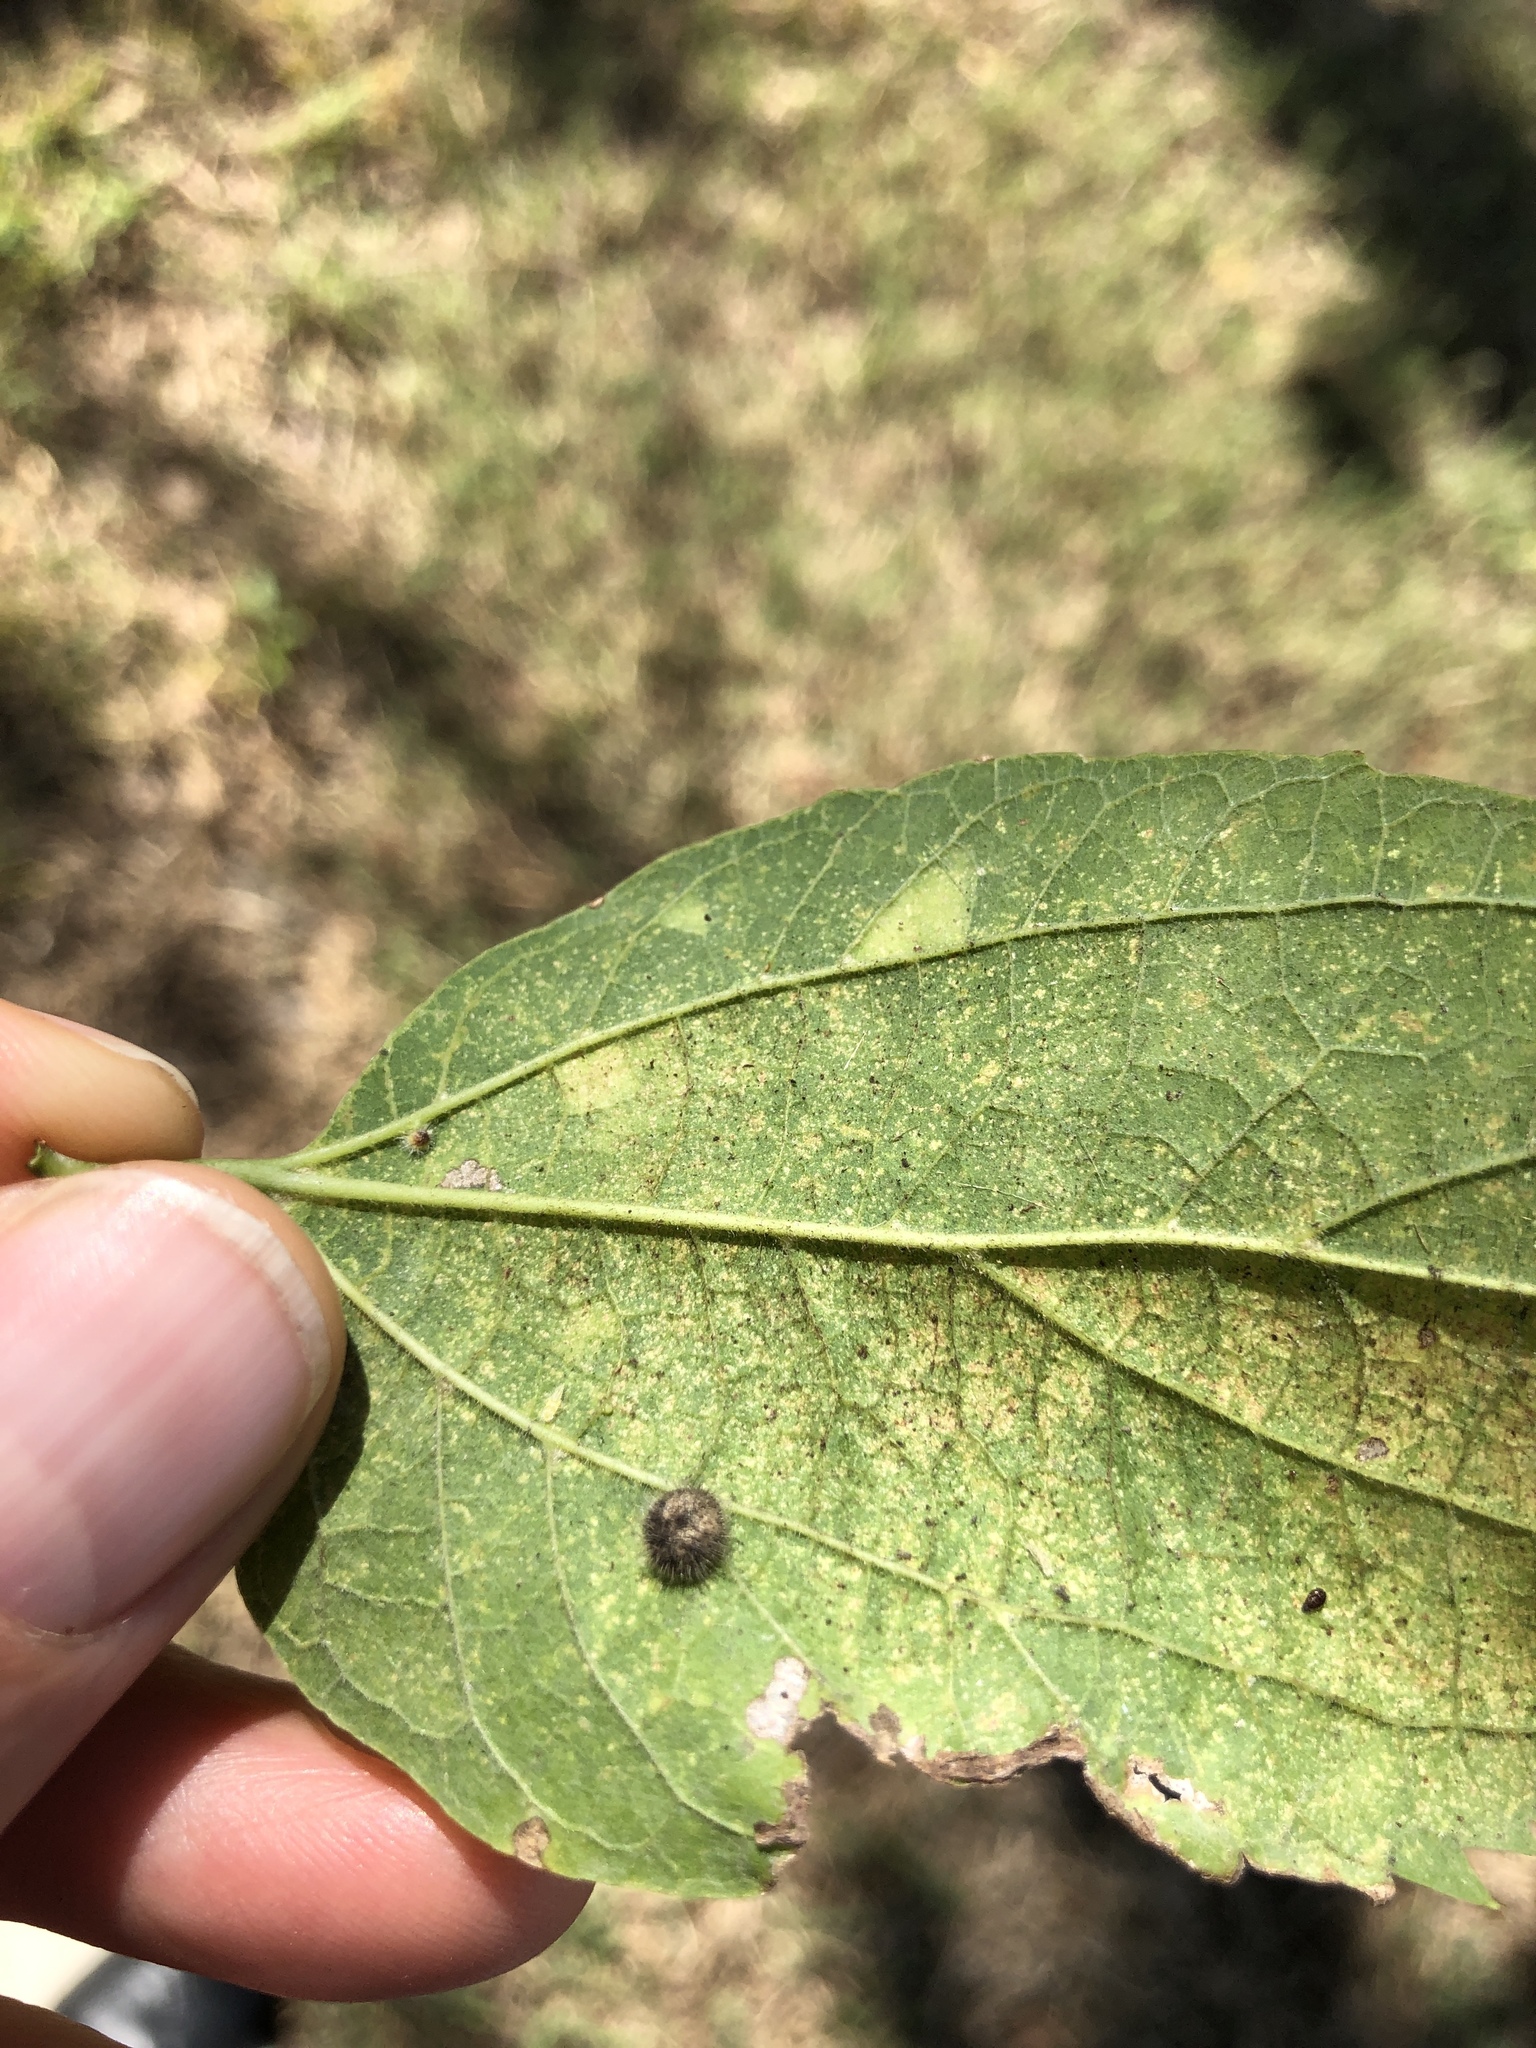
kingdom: Animalia
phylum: Arthropoda
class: Insecta
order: Diptera
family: Cecidomyiidae
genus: Celticecis
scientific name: Celticecis pubescens
